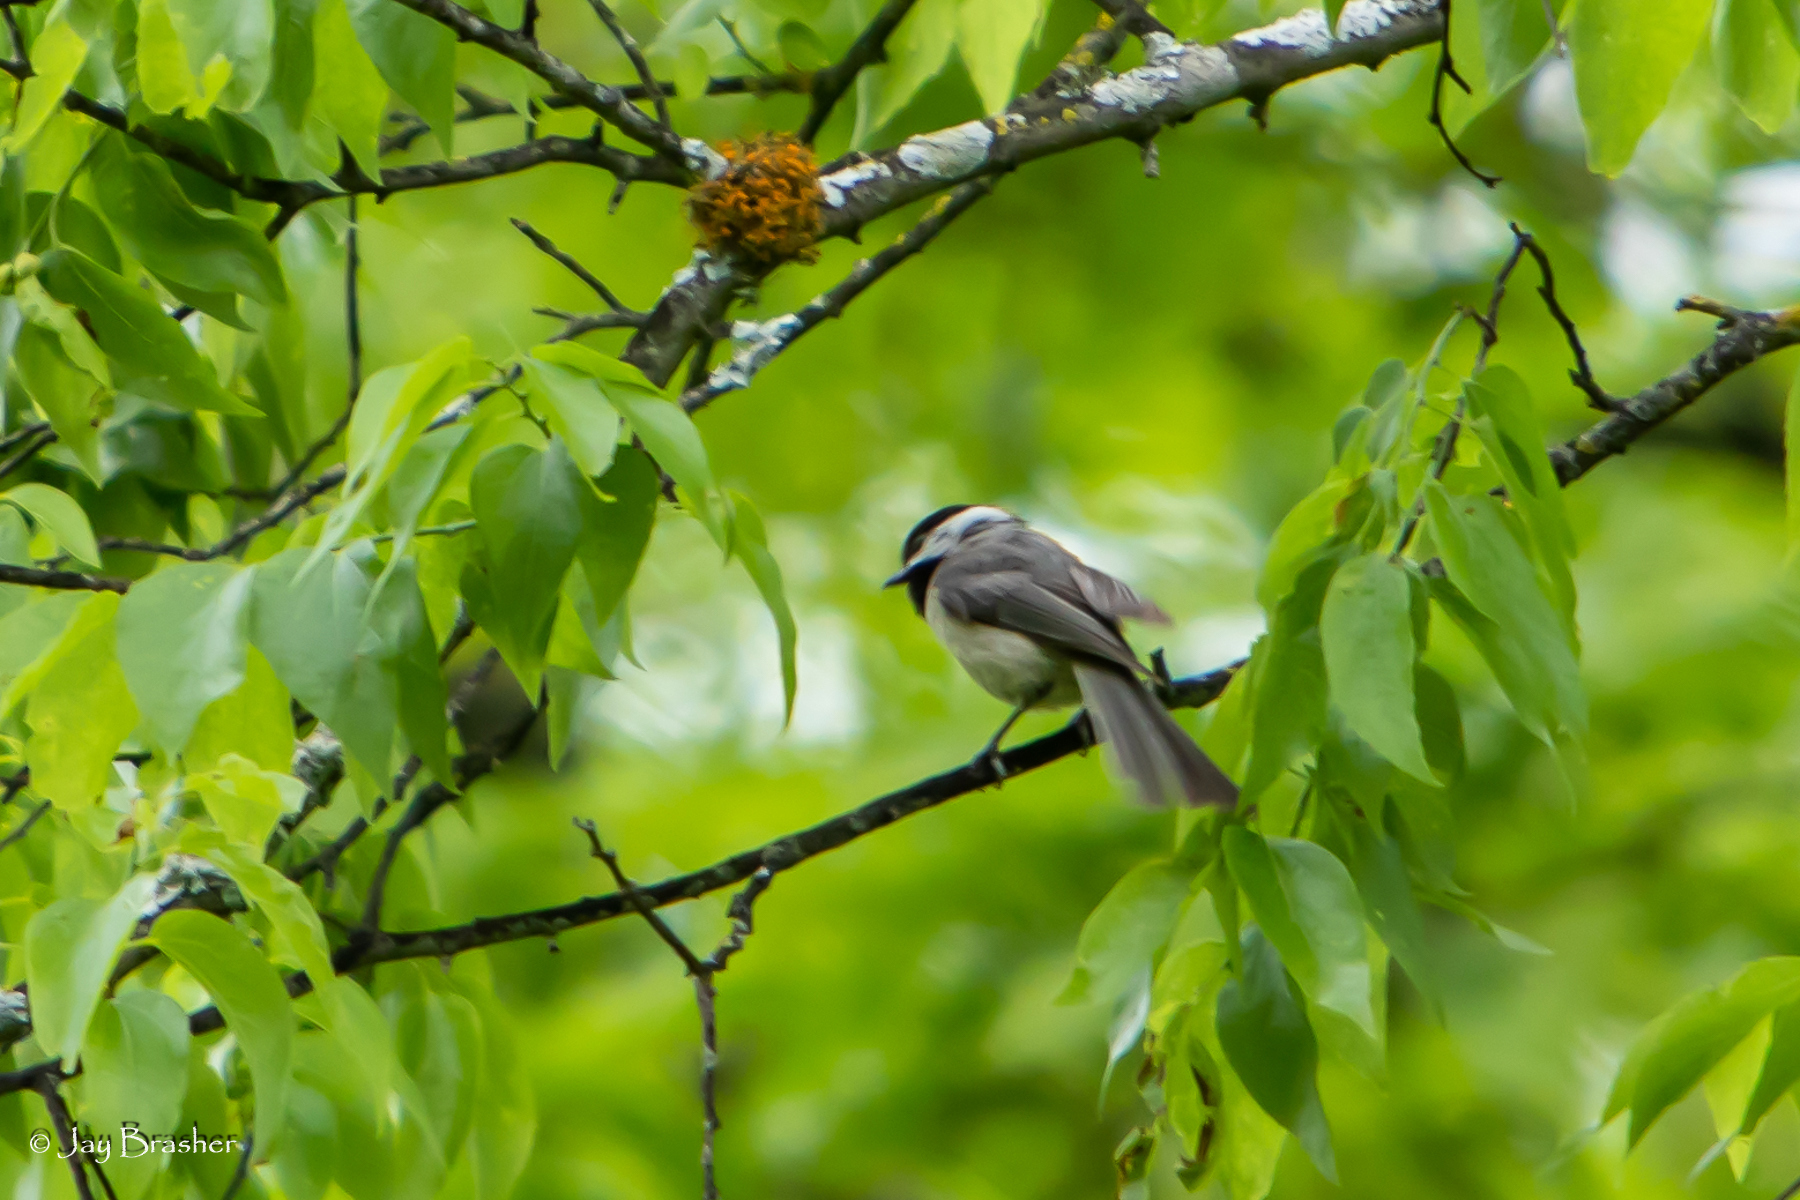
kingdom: Animalia
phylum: Chordata
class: Aves
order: Passeriformes
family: Paridae
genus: Poecile
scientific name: Poecile carolinensis
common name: Carolina chickadee
